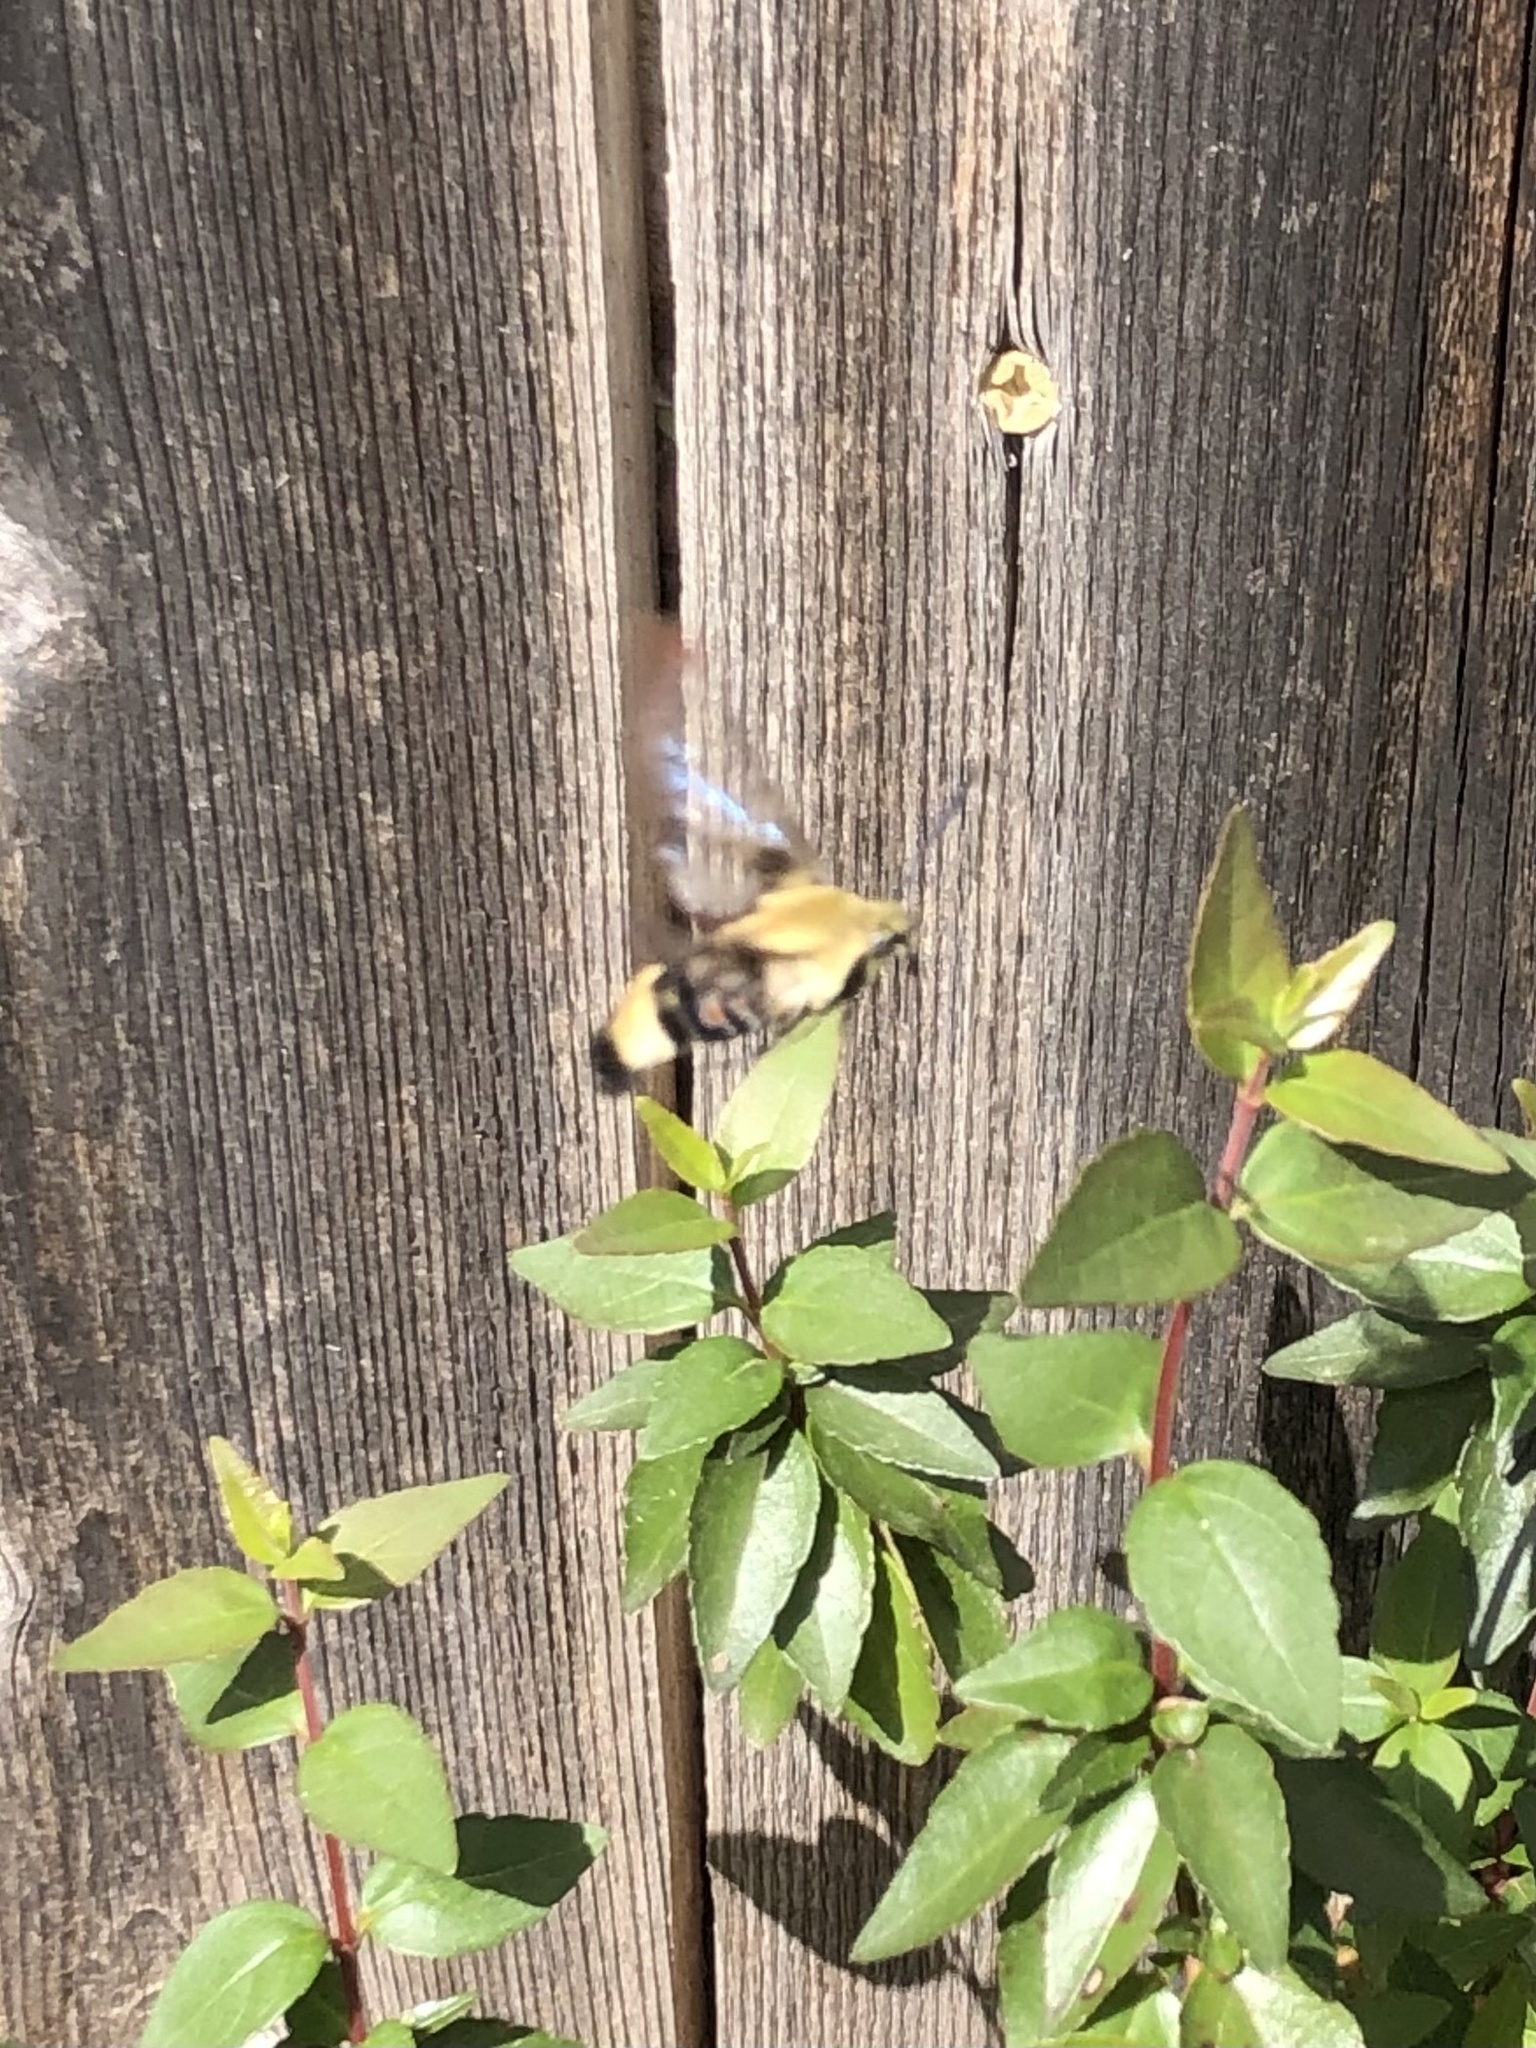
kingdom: Animalia
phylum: Arthropoda
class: Insecta
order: Lepidoptera
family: Sphingidae
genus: Hemaris
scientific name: Hemaris diffinis
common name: Bumblebee moth
